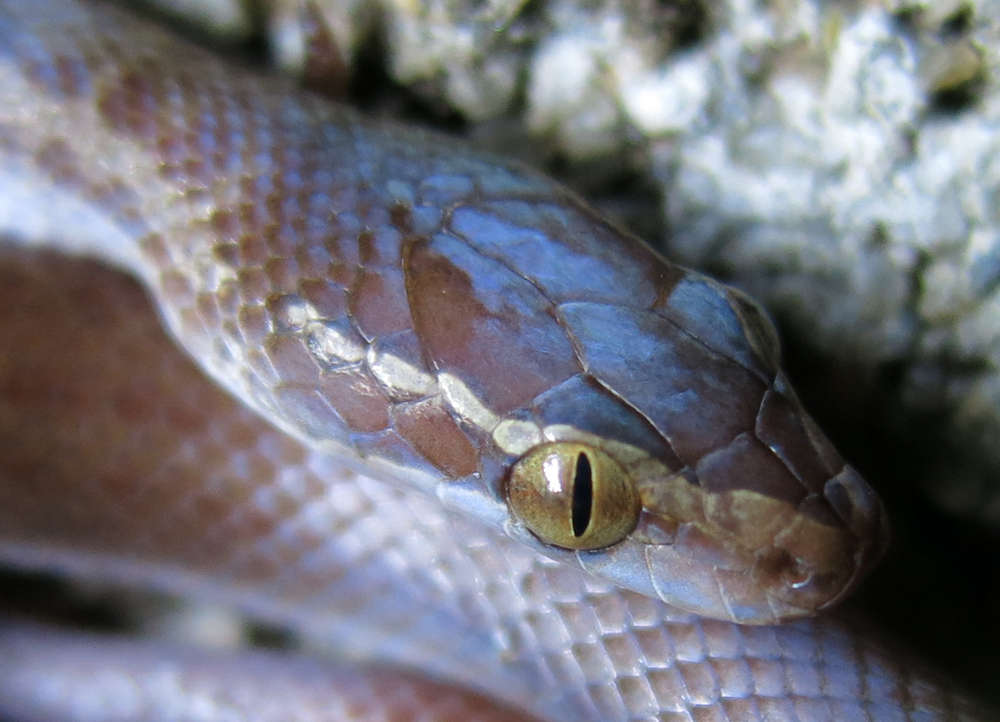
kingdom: Animalia
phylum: Chordata
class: Squamata
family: Lamprophiidae
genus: Boaedon
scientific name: Boaedon capensis
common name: Brown house snake
